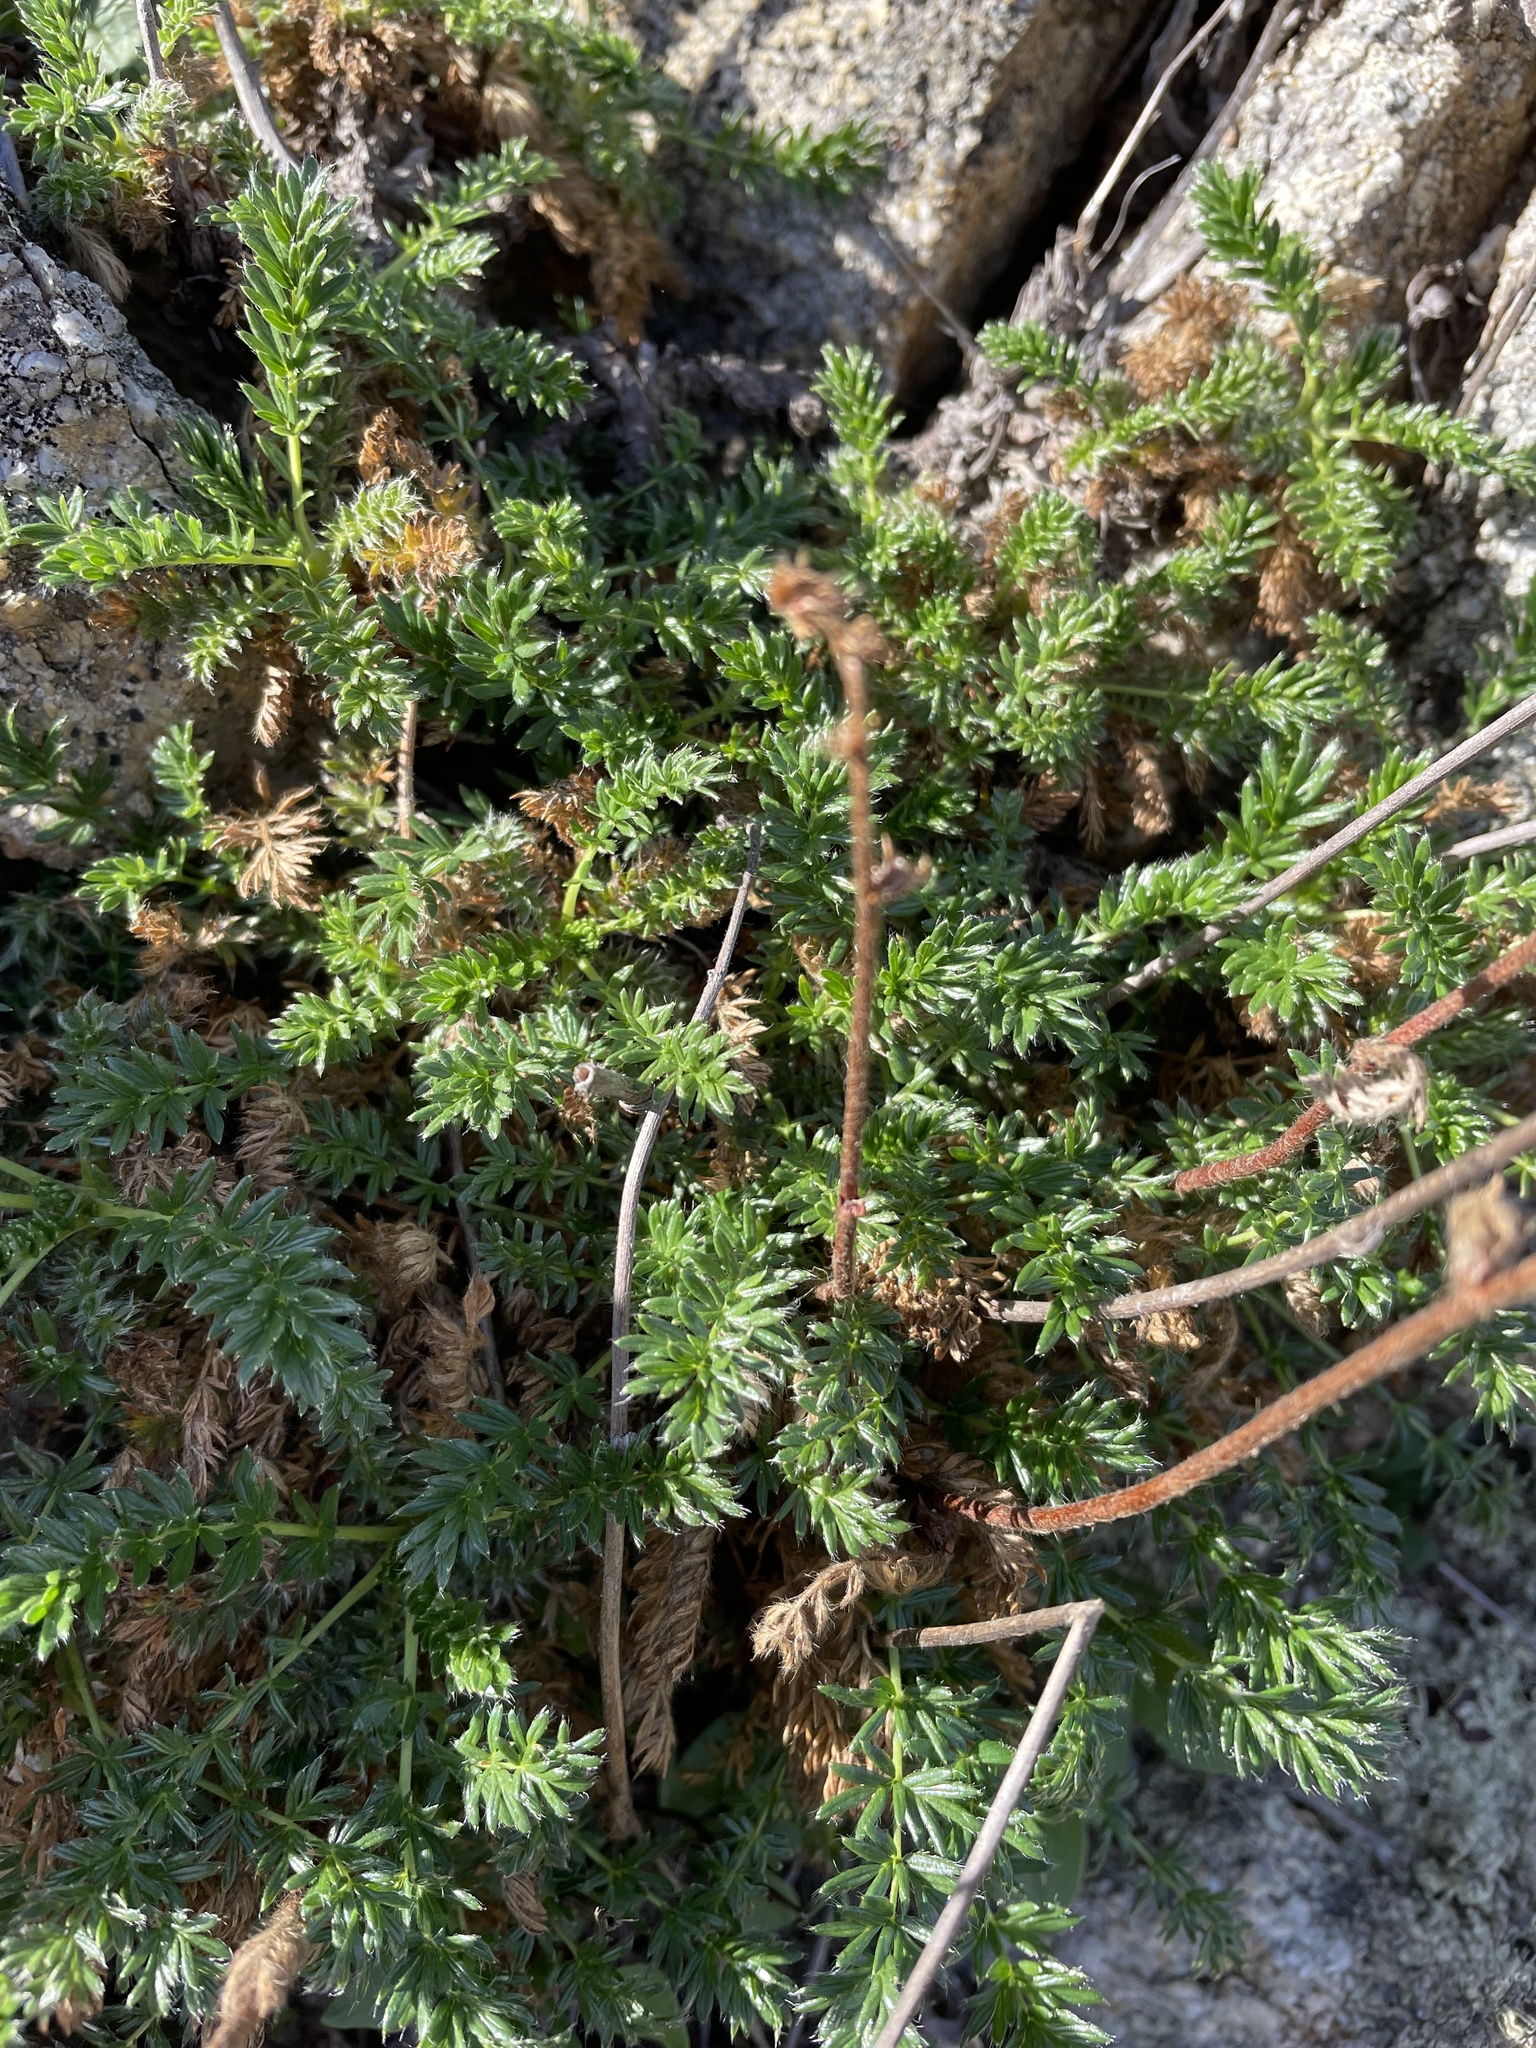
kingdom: Plantae
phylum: Tracheophyta
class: Magnoliopsida
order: Rosales
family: Rosaceae
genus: Acaena
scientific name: Acaena pinnatifida
